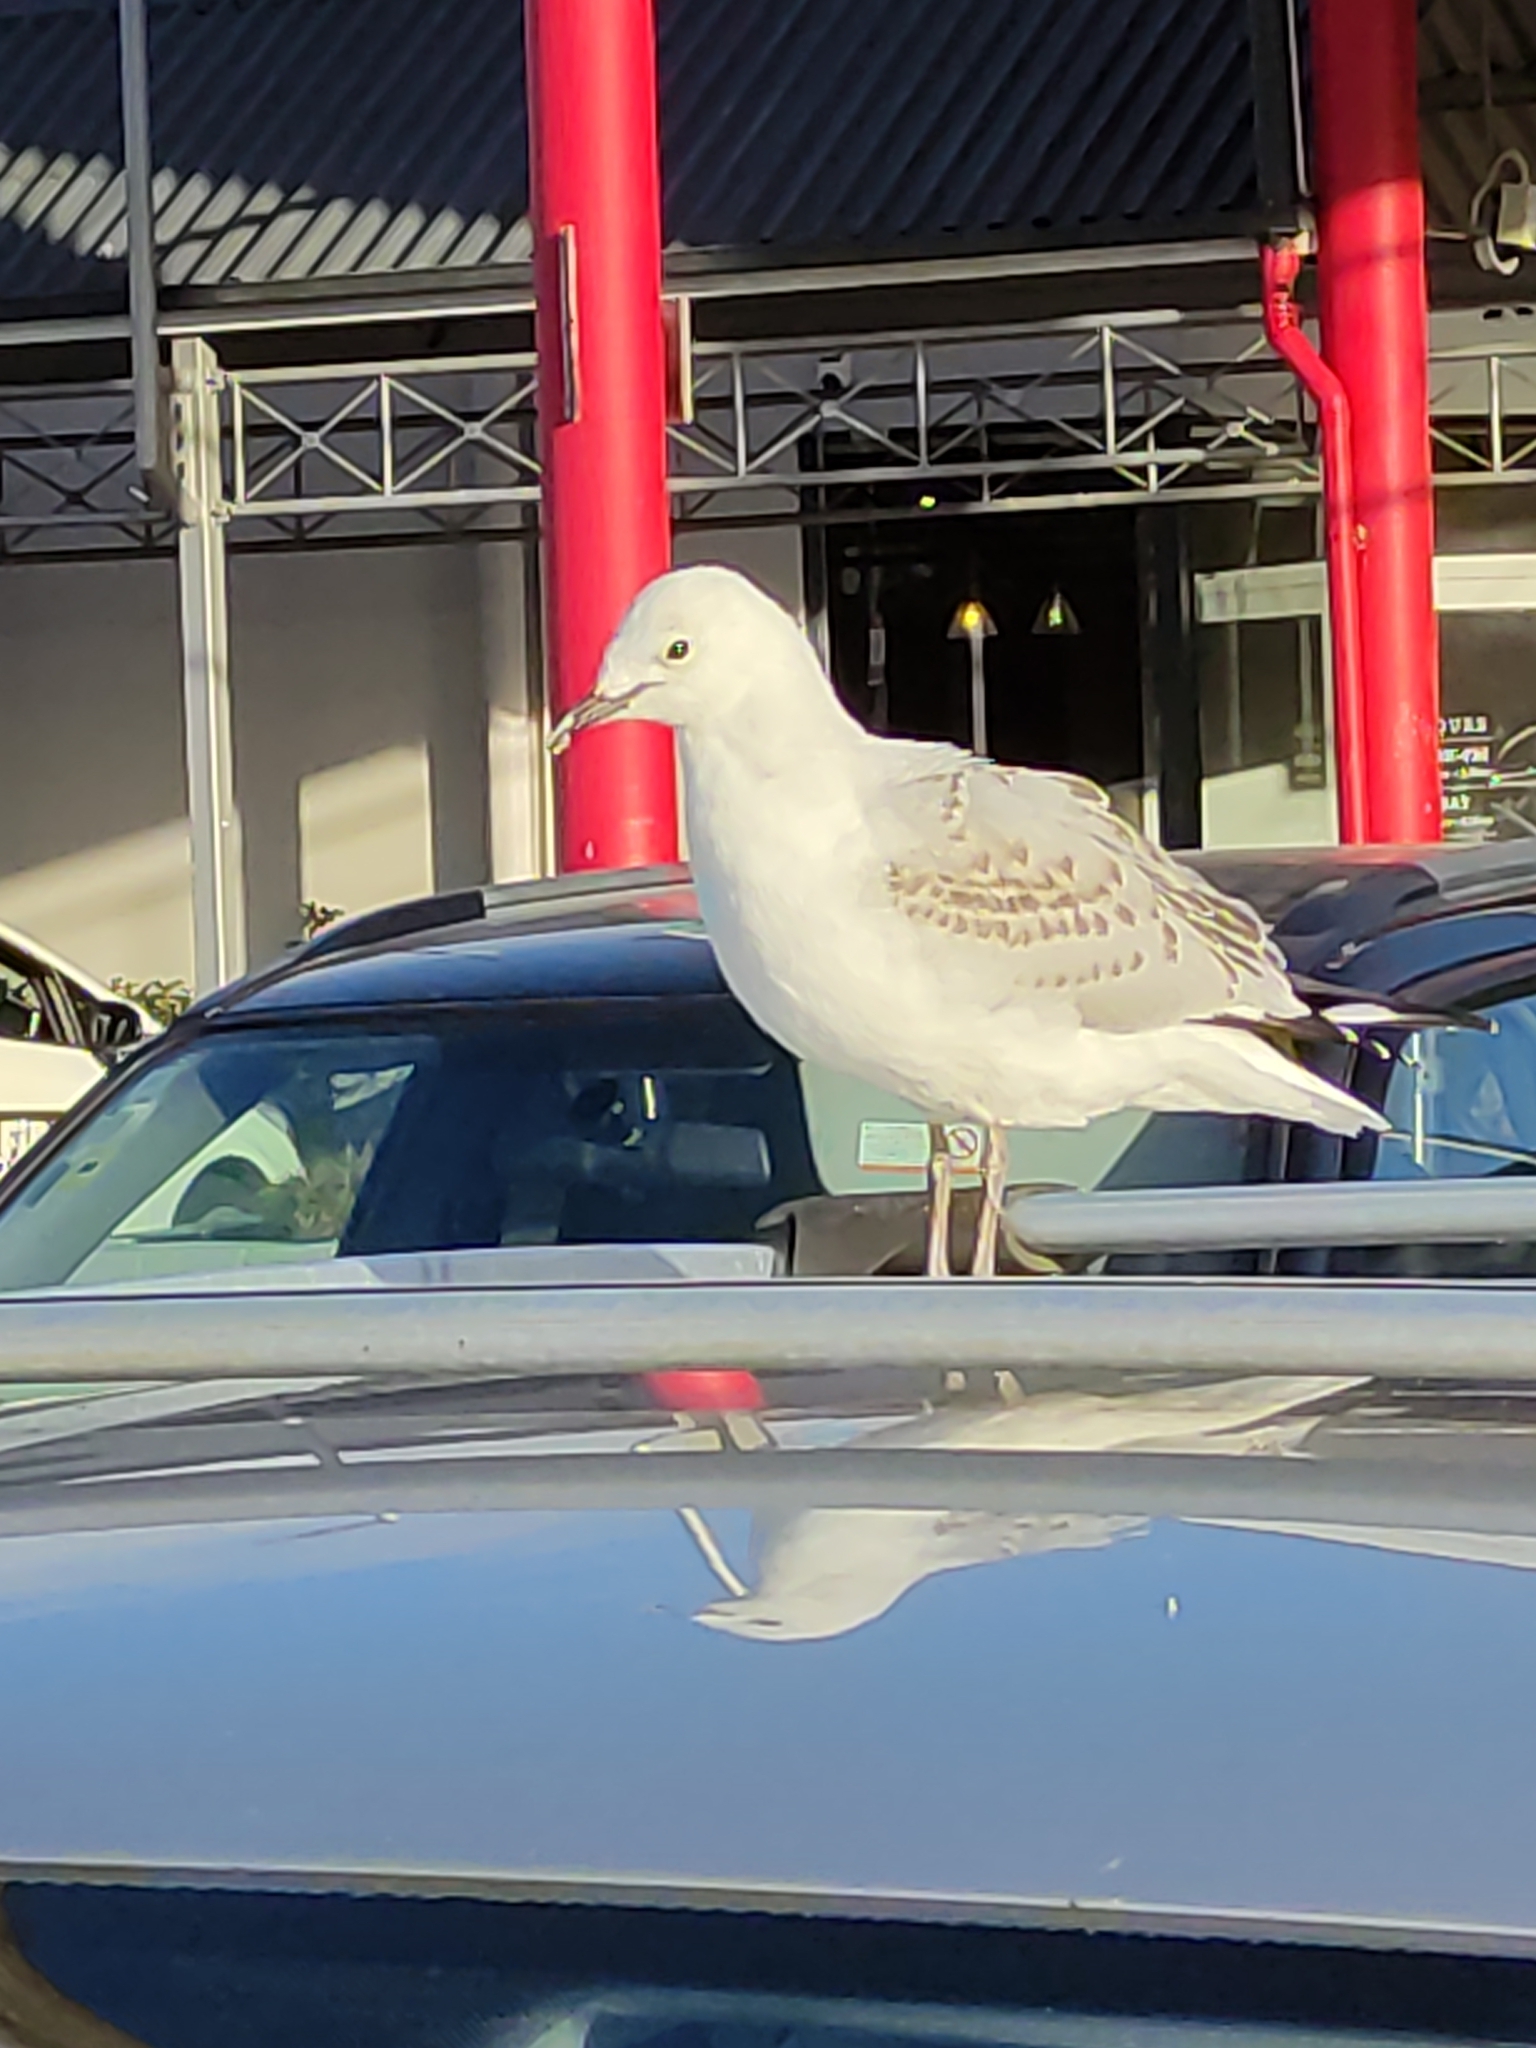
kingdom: Animalia
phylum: Chordata
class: Aves
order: Charadriiformes
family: Laridae
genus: Chroicocephalus
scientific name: Chroicocephalus novaehollandiae
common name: Silver gull
